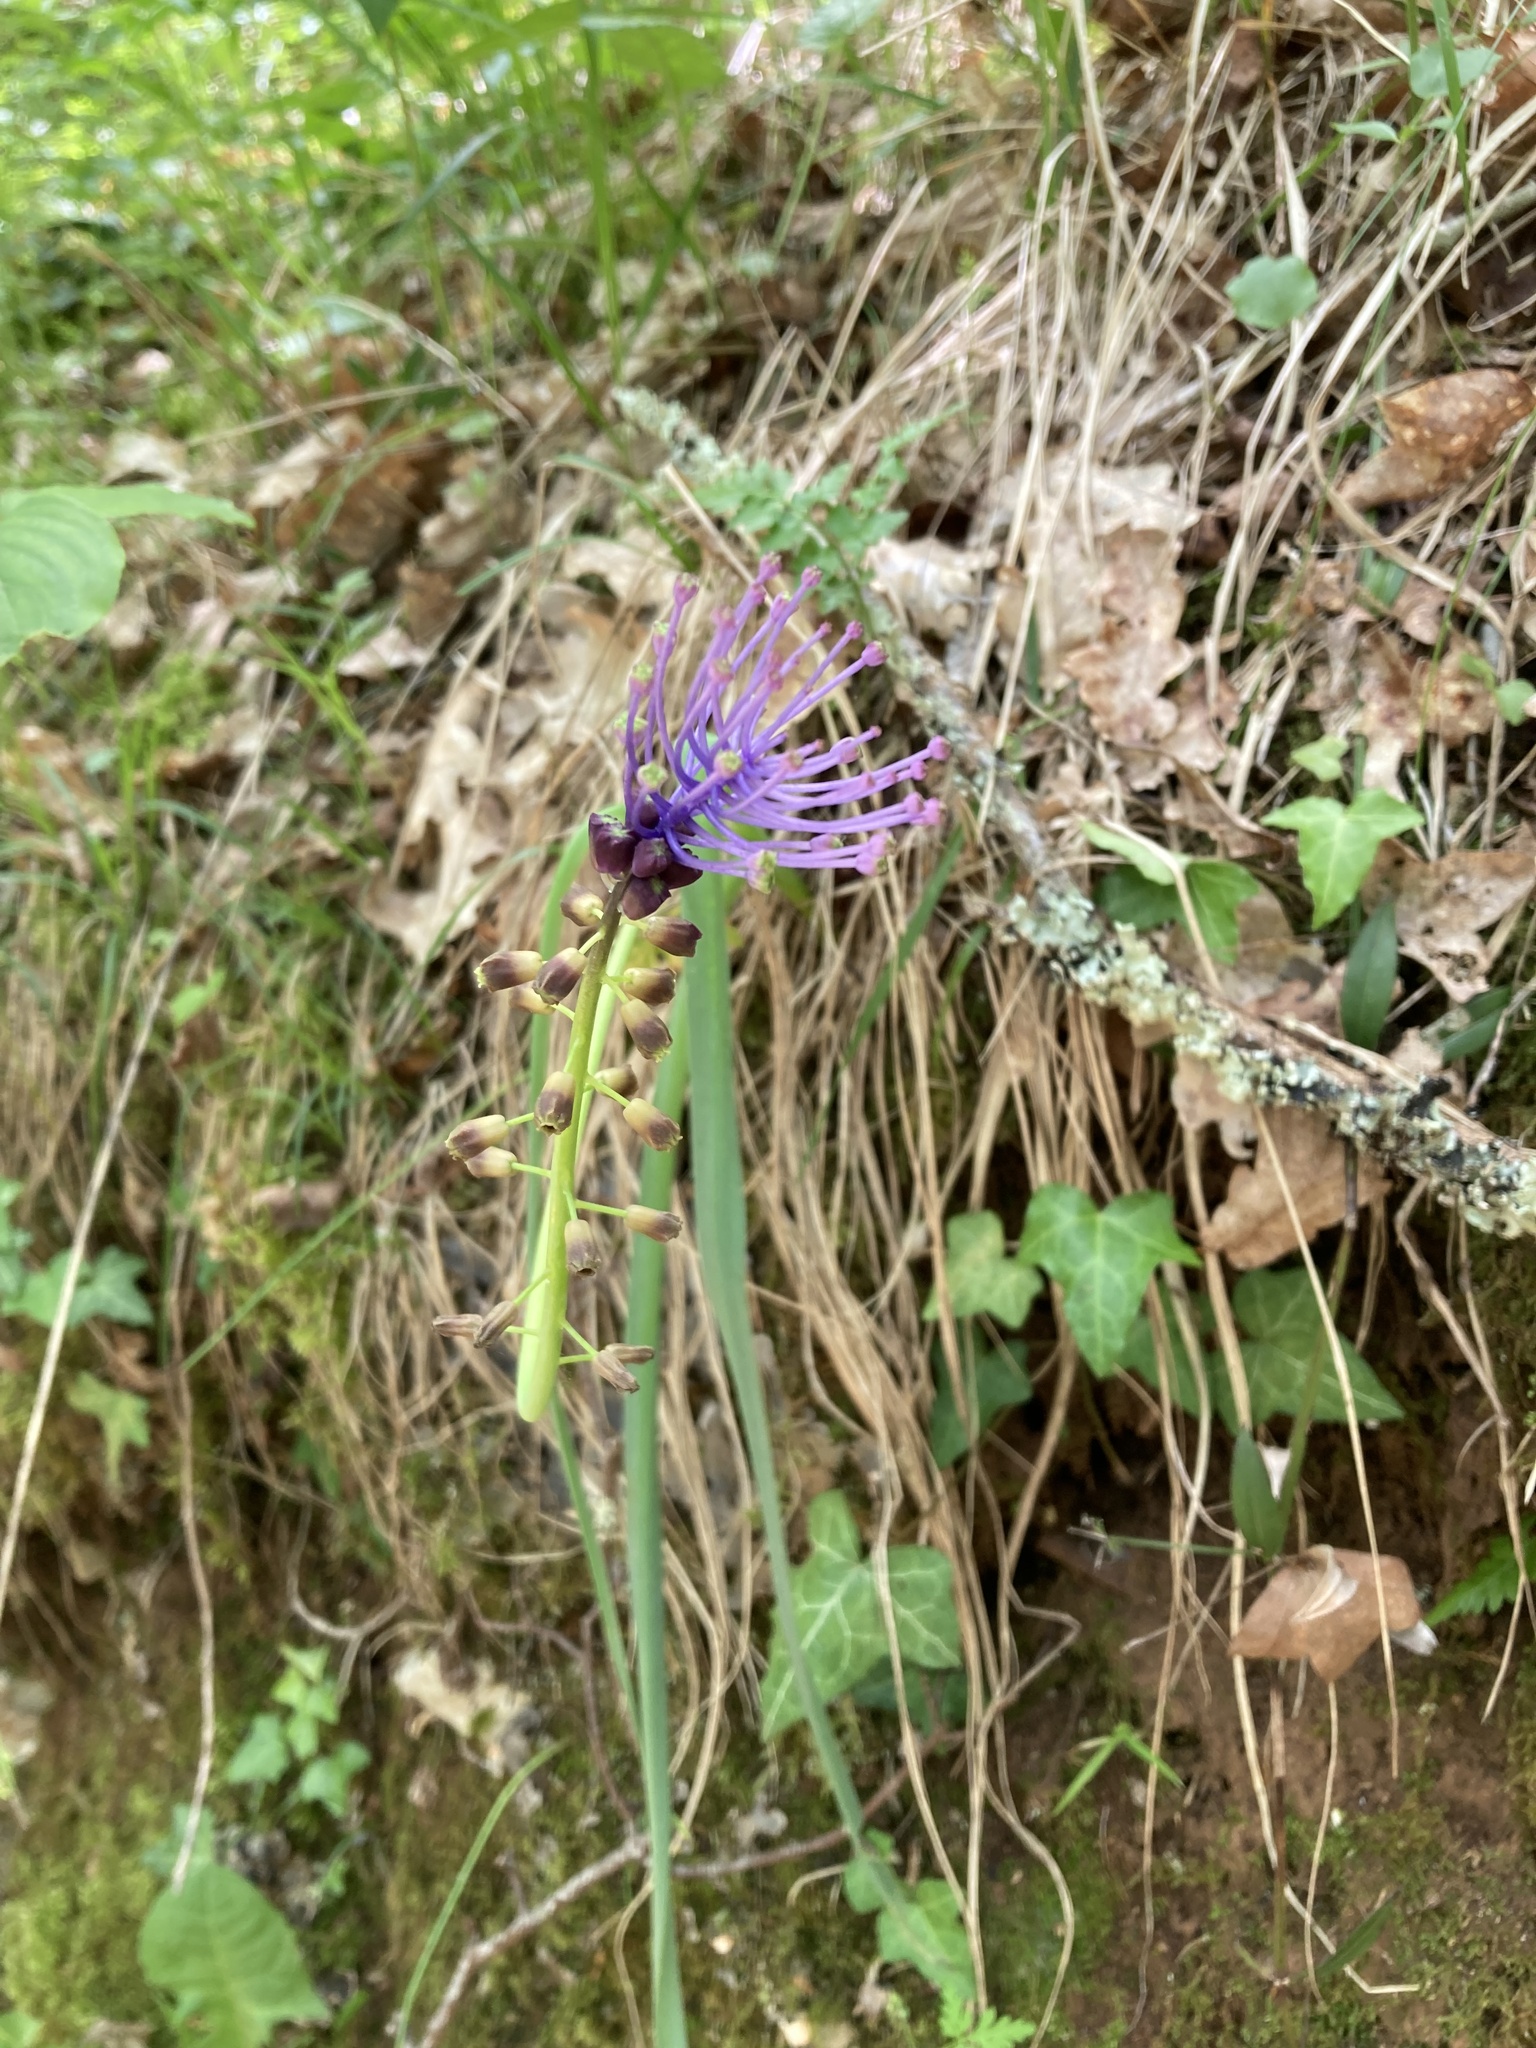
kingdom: Plantae
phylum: Tracheophyta
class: Liliopsida
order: Asparagales
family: Asparagaceae
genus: Muscari
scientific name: Muscari comosum
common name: Tassel hyacinth
